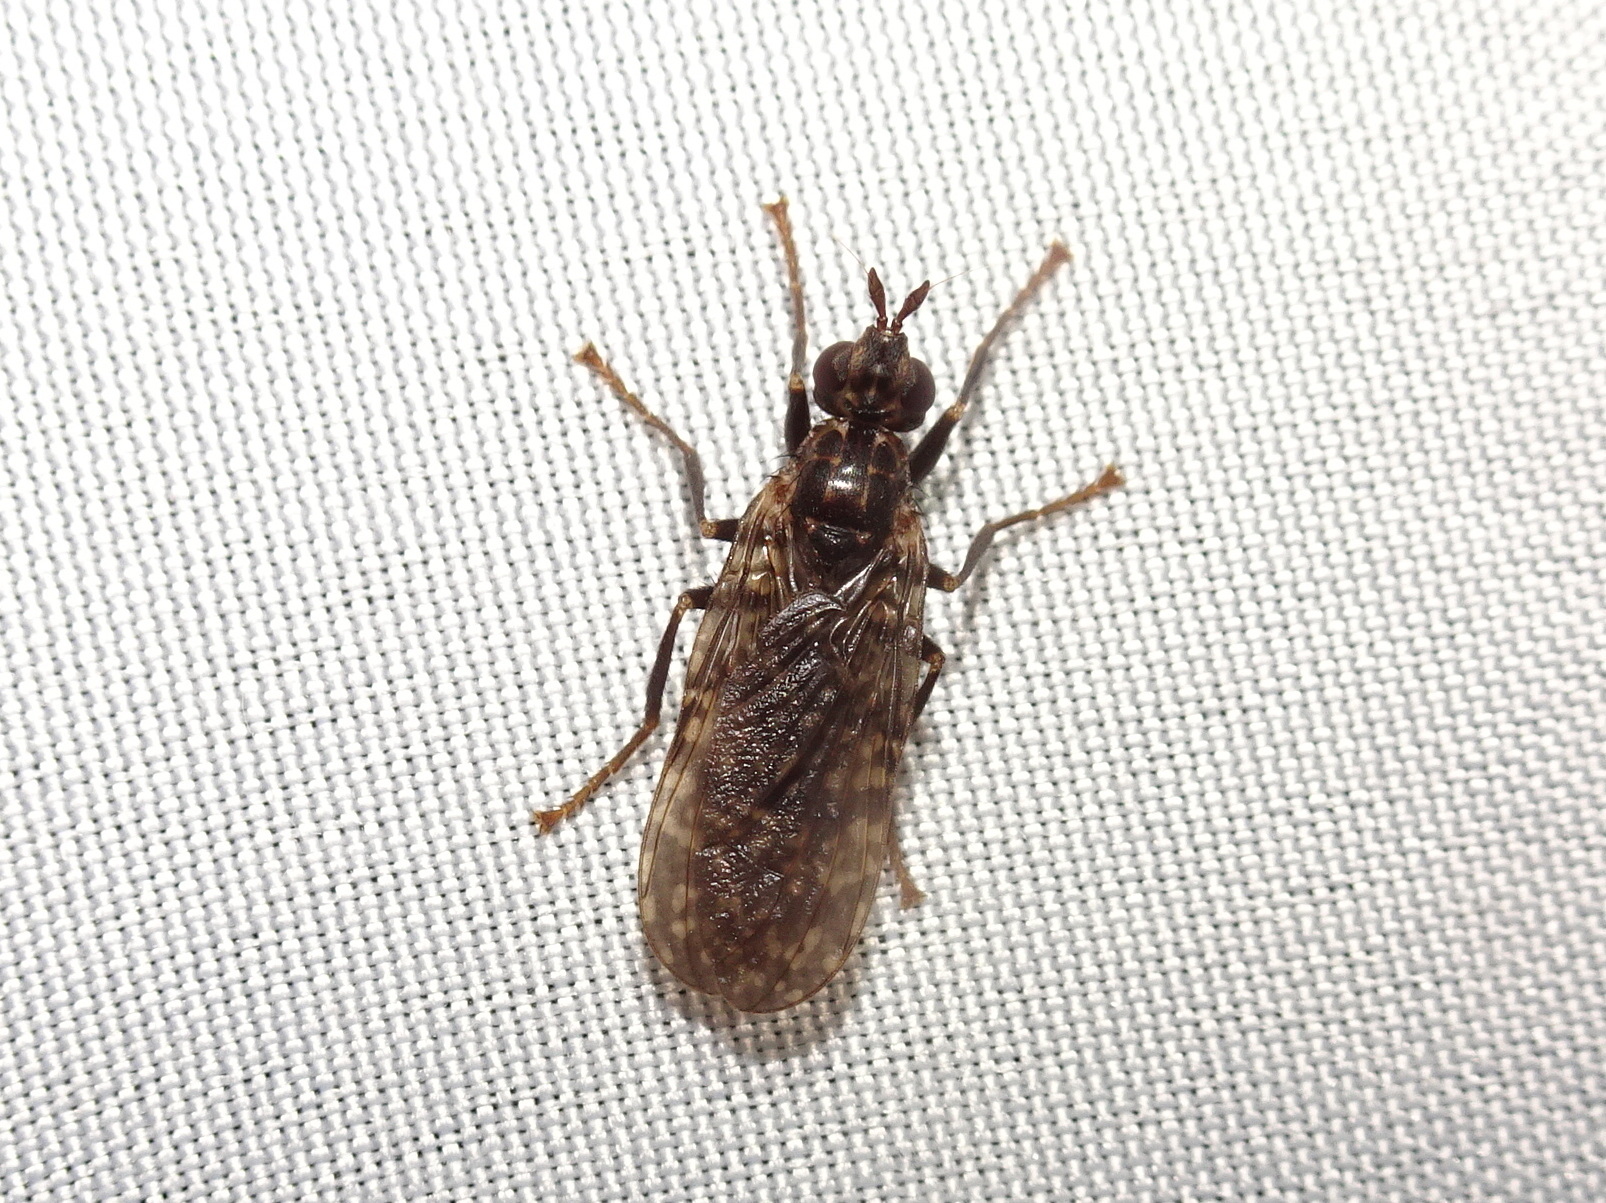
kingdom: Animalia
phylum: Arthropoda
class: Insecta
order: Diptera
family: Pyrgotidae
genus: Pyrgota
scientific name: Pyrgota valida
